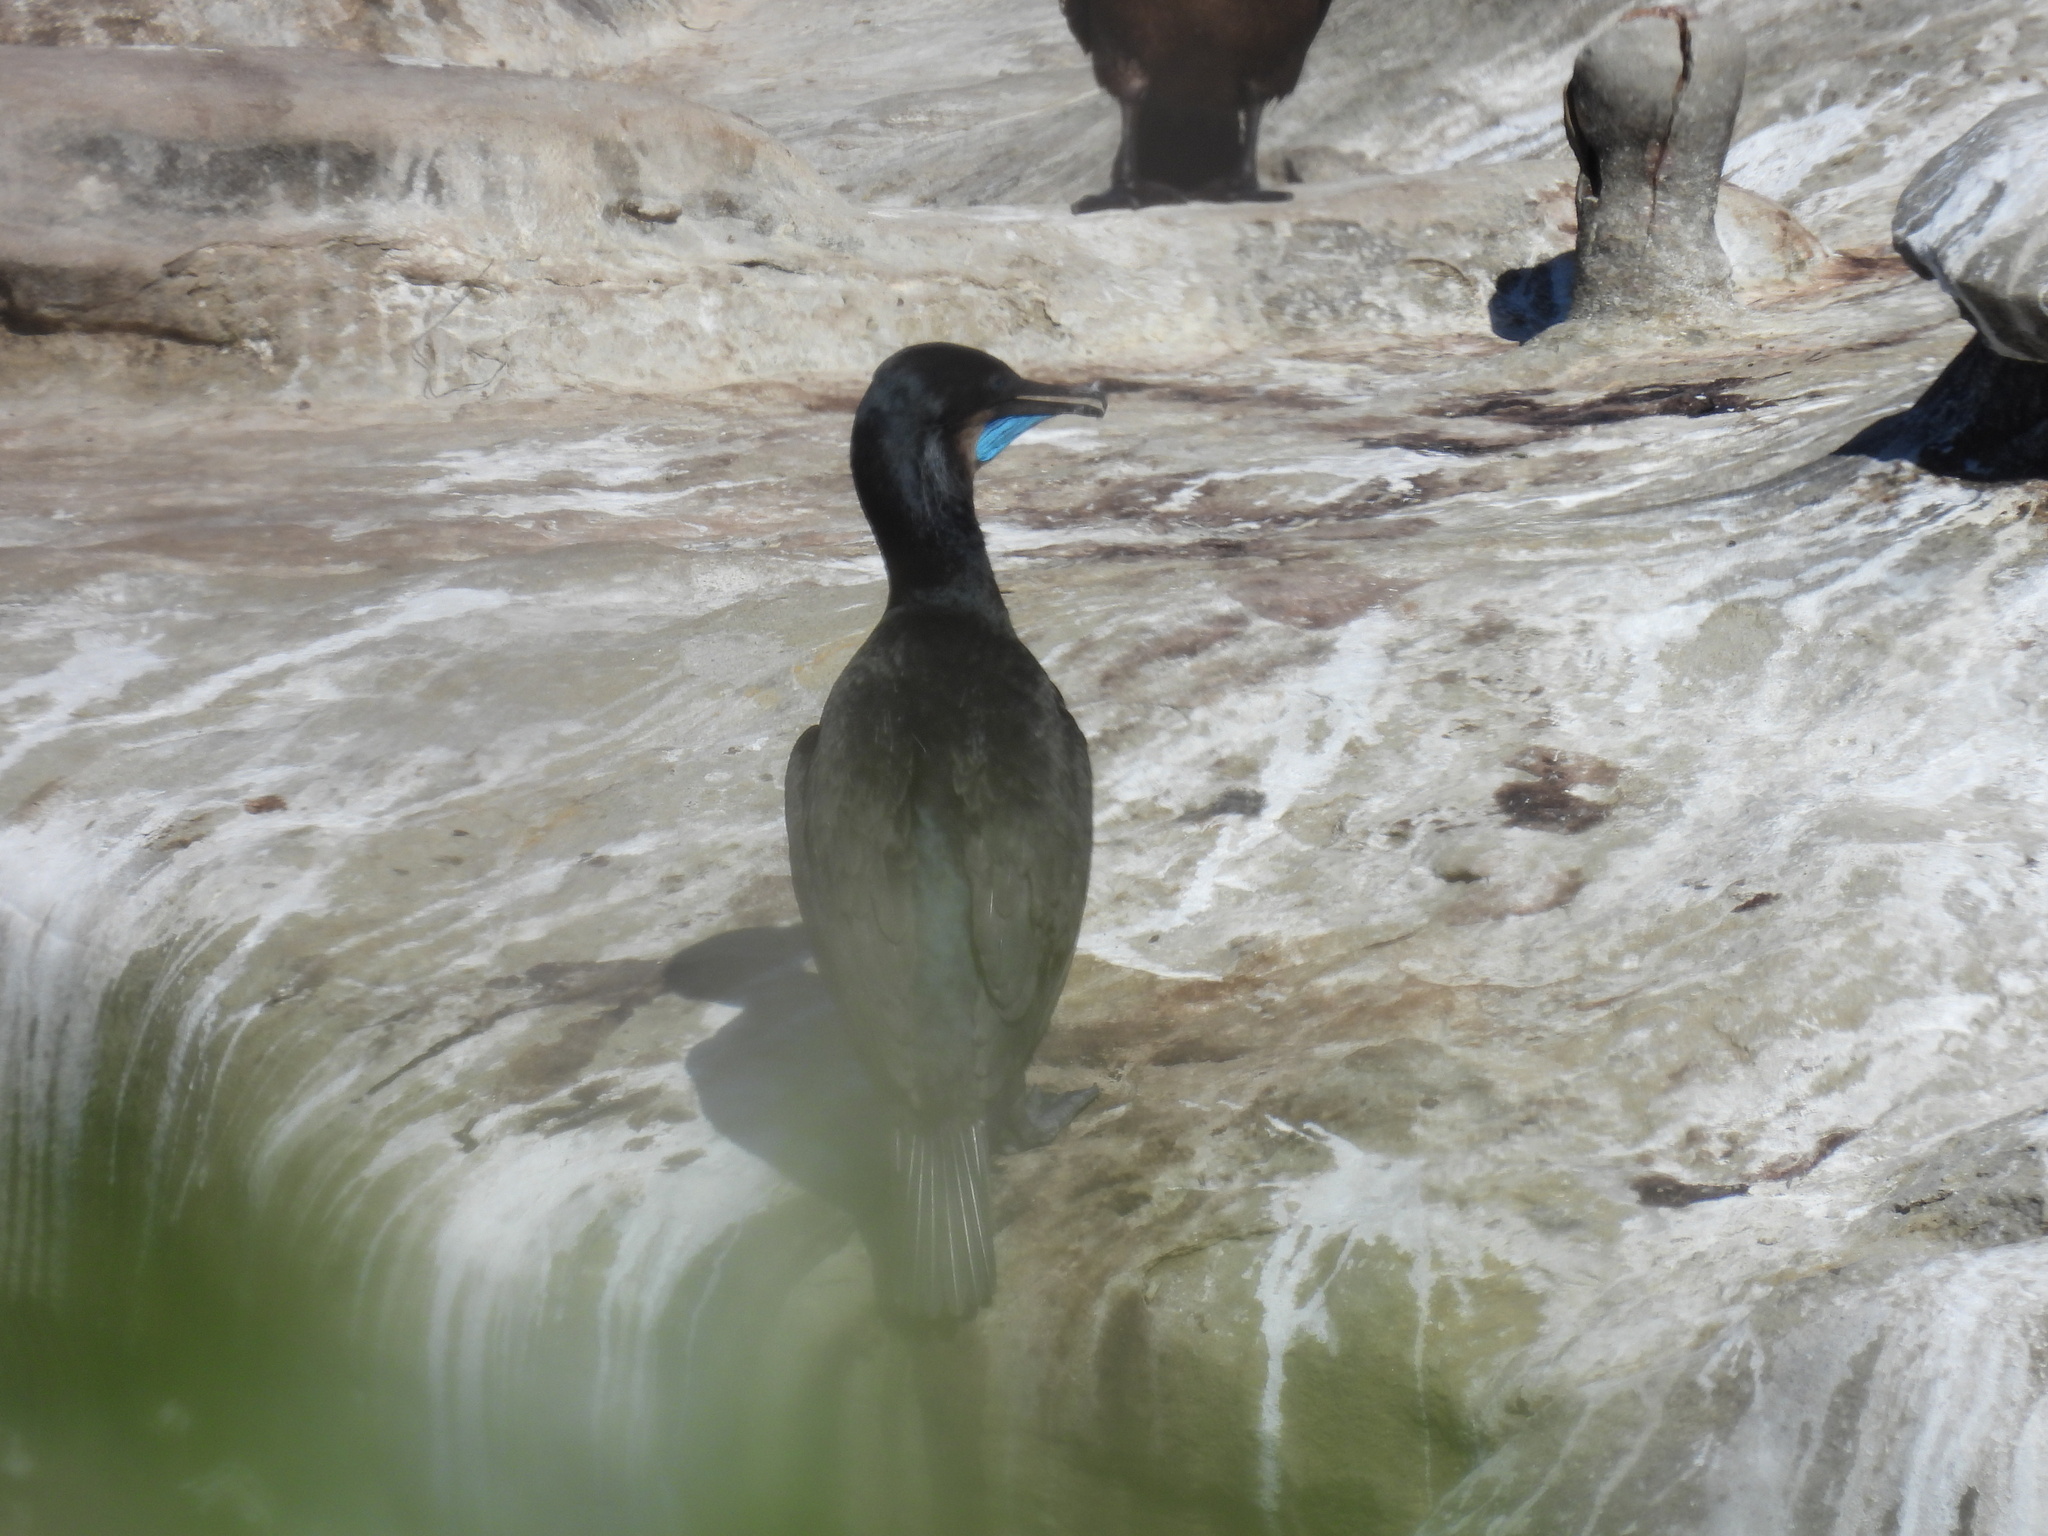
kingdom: Animalia
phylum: Chordata
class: Aves
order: Suliformes
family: Phalacrocoracidae
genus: Urile
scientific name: Urile penicillatus
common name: Brandt's cormorant
